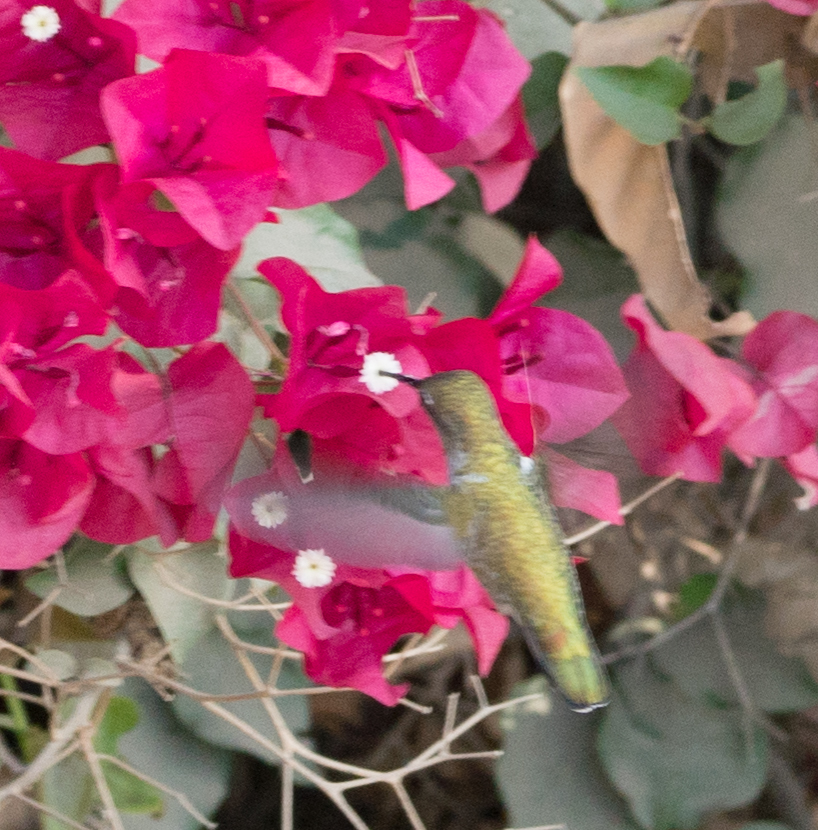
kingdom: Animalia
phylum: Chordata
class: Aves
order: Apodiformes
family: Trochilidae
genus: Calypte
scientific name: Calypte anna
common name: Anna's hummingbird
